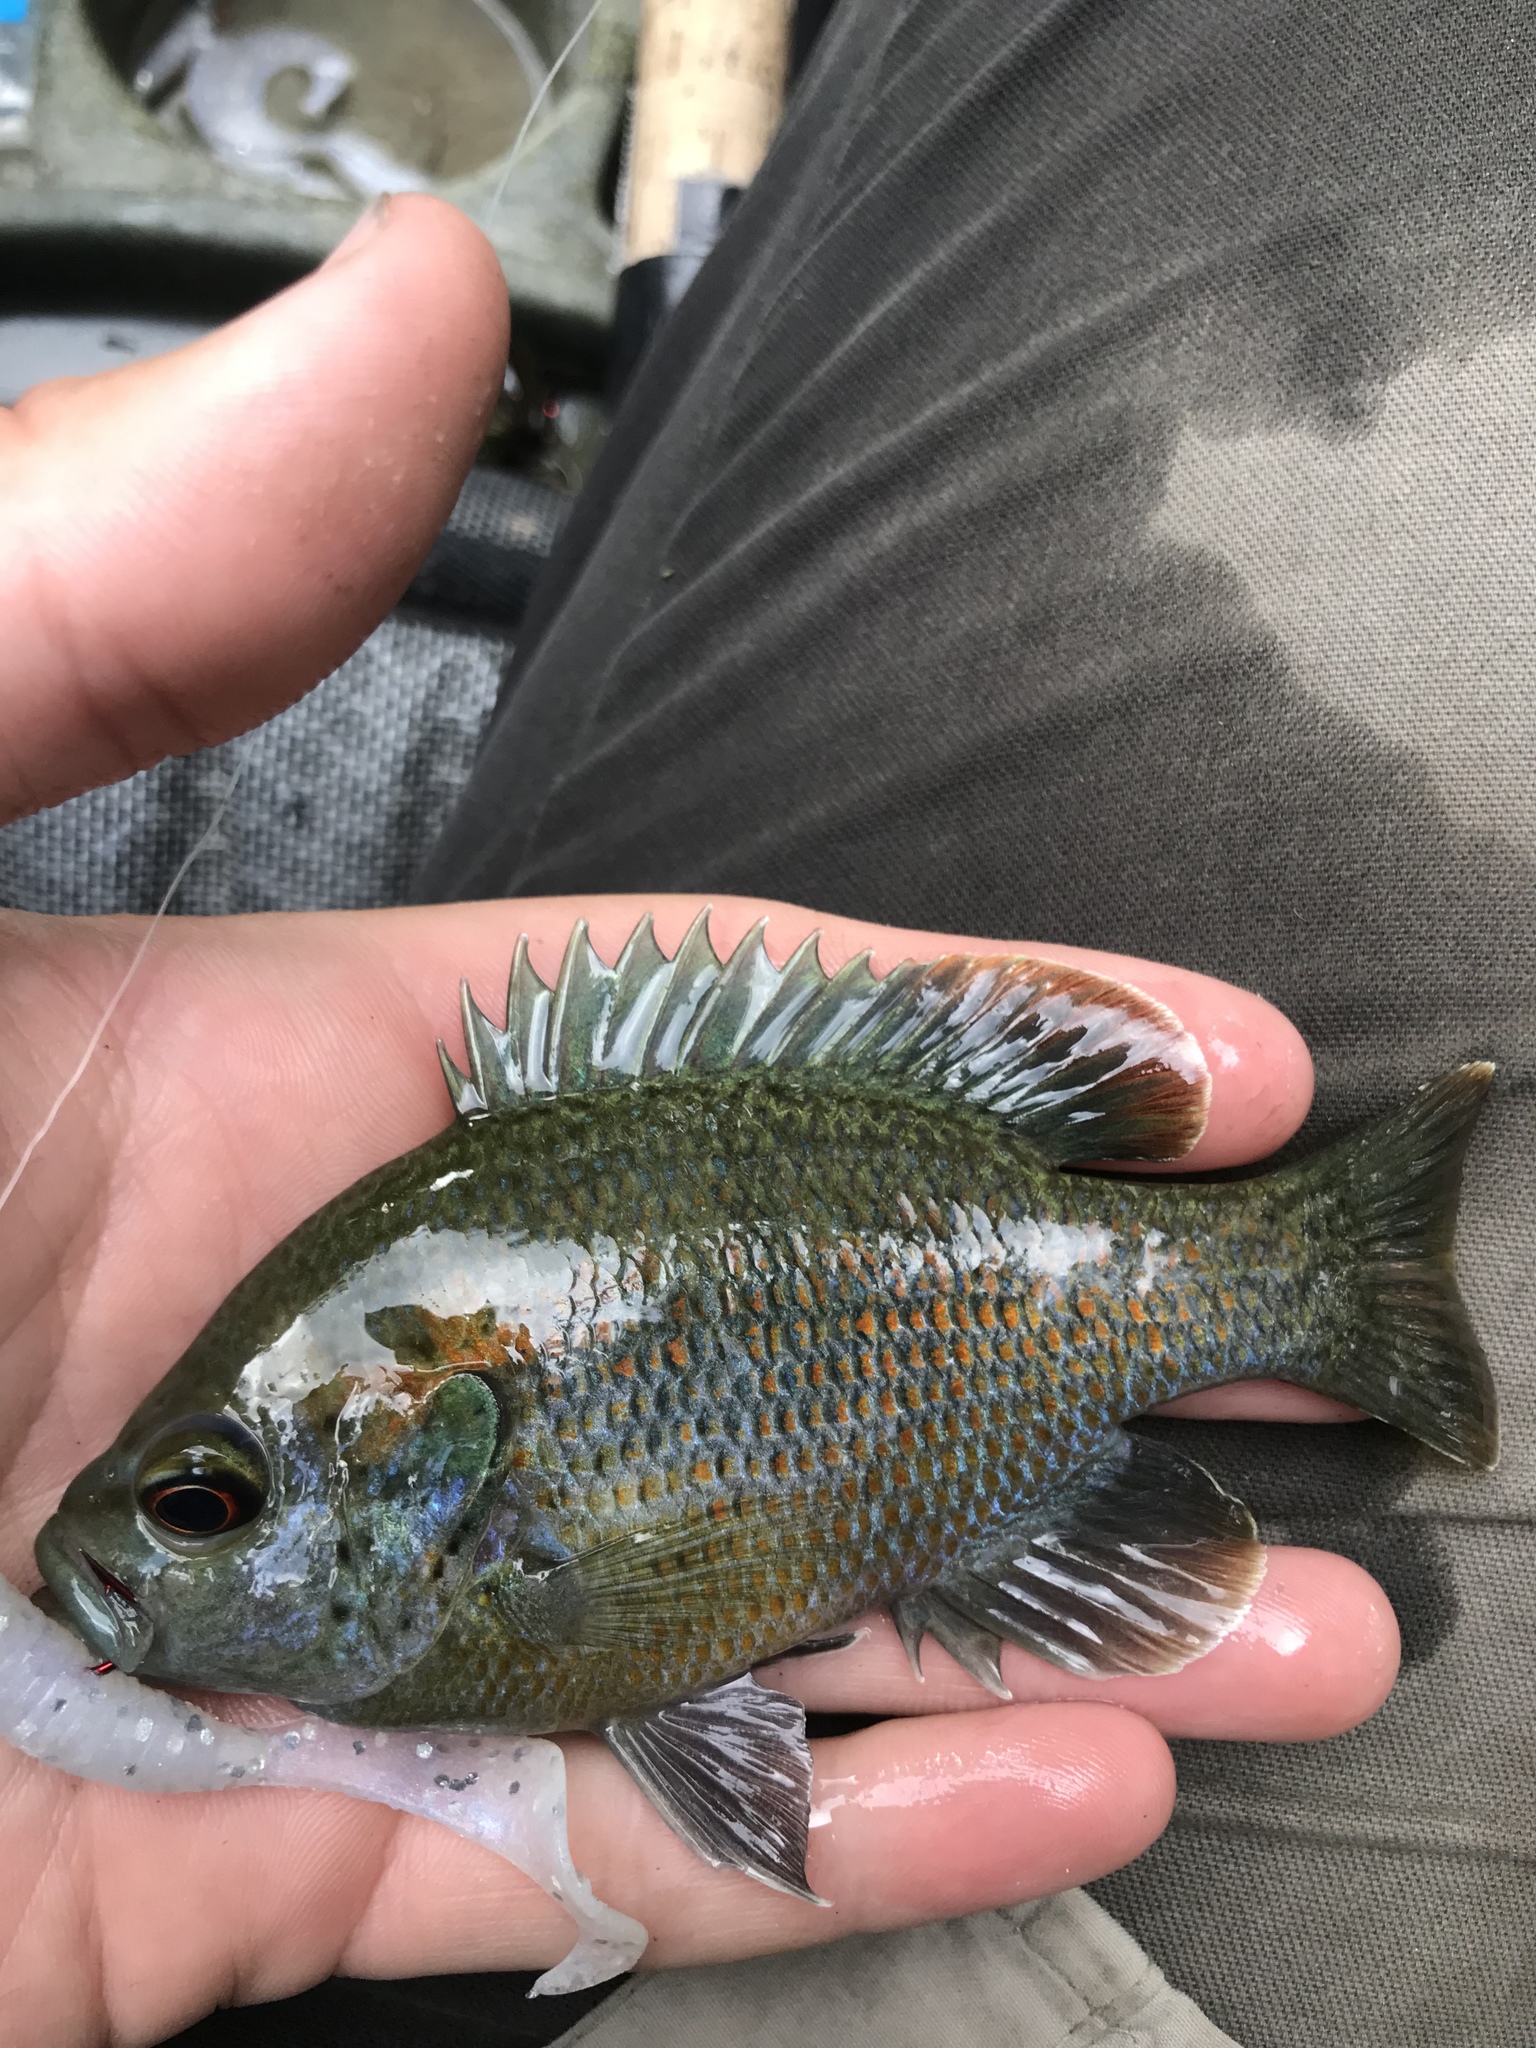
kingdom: Animalia
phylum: Chordata
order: Perciformes
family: Centrarchidae
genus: Lepomis
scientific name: Lepomis miniatus
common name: Redspotted sunfish
